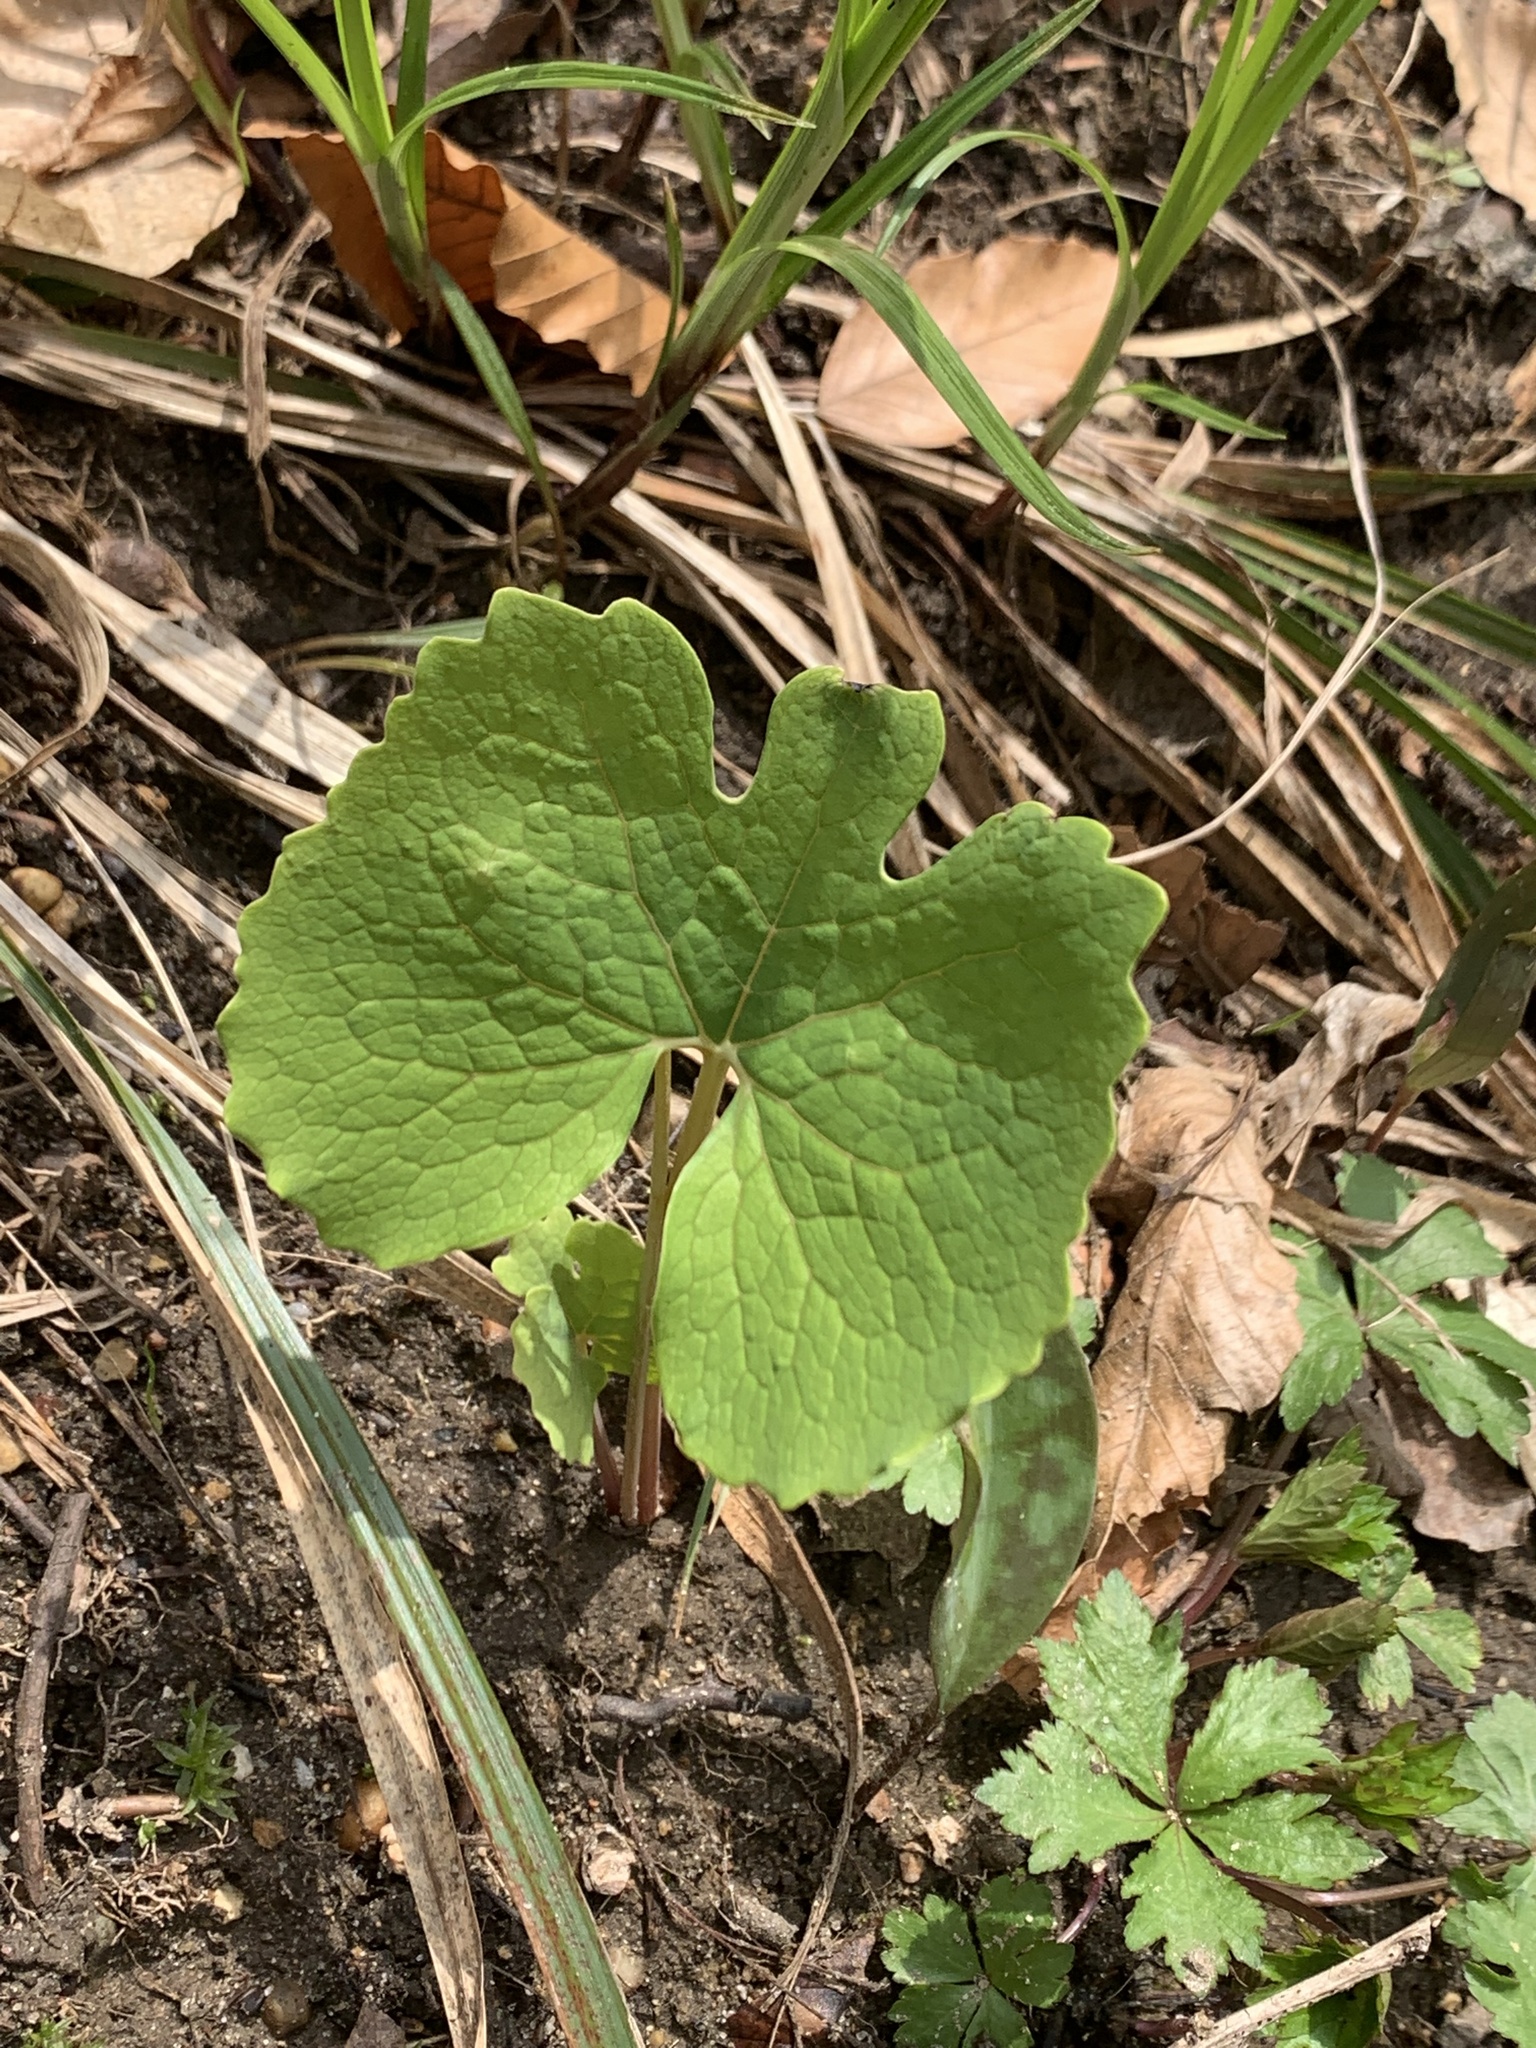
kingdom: Plantae
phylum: Tracheophyta
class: Magnoliopsida
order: Ranunculales
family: Papaveraceae
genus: Sanguinaria
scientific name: Sanguinaria canadensis
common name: Bloodroot
